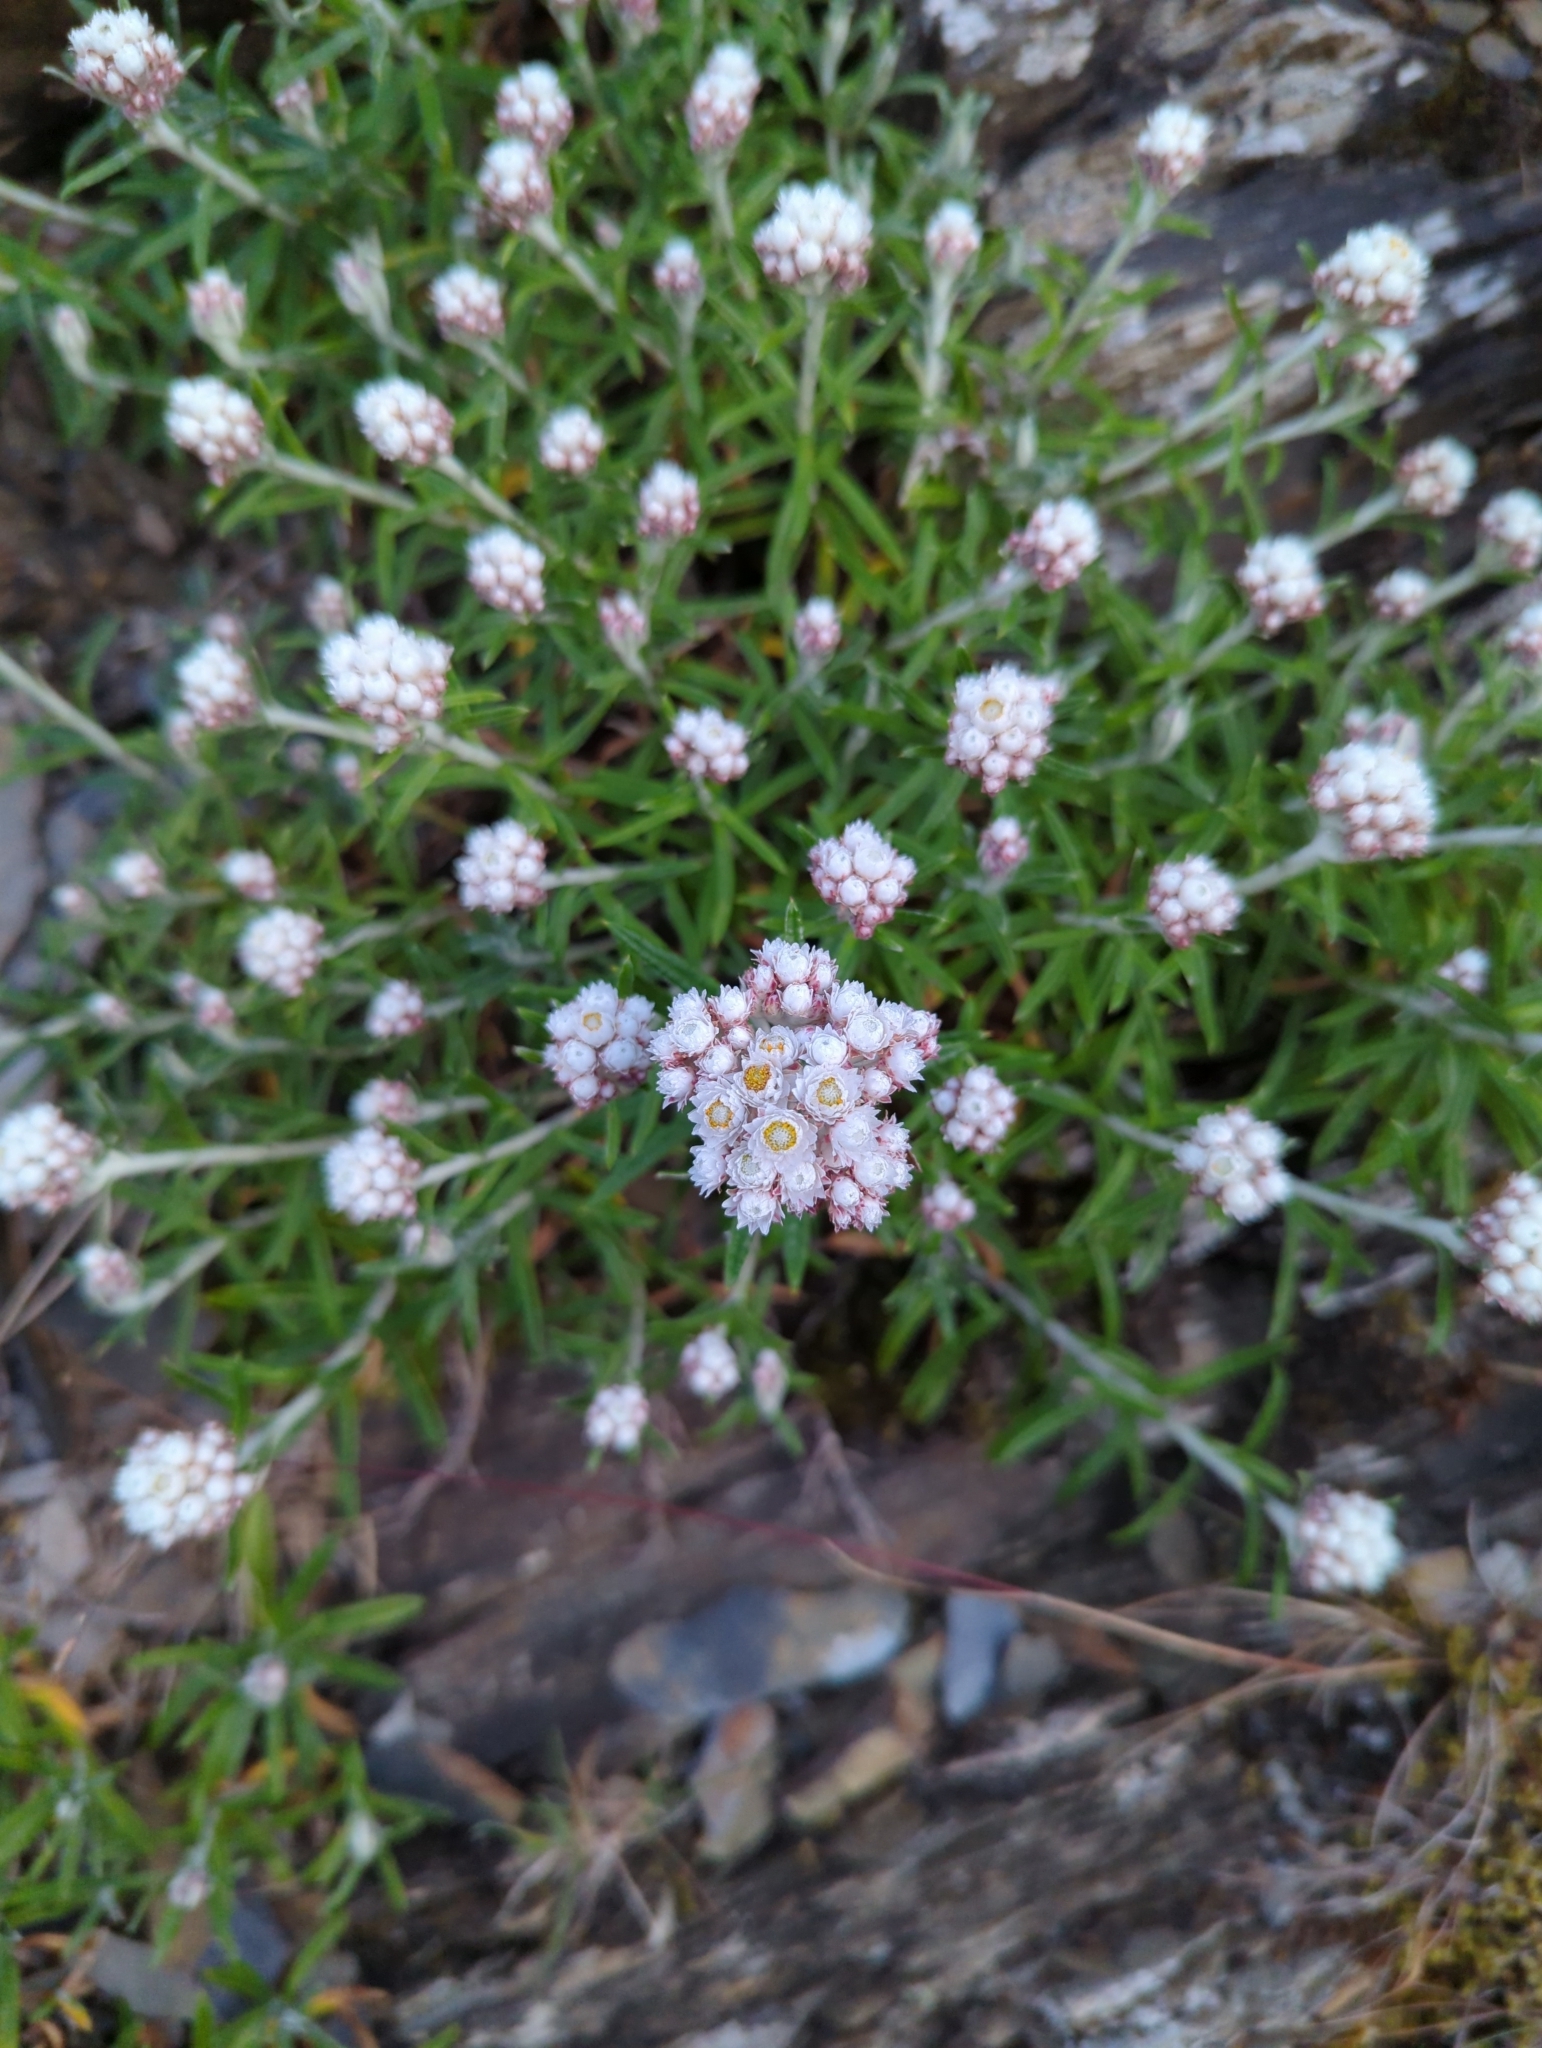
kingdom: Plantae
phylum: Tracheophyta
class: Magnoliopsida
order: Asterales
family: Asteraceae
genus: Anaphalis
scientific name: Anaphalis morrisonicola
